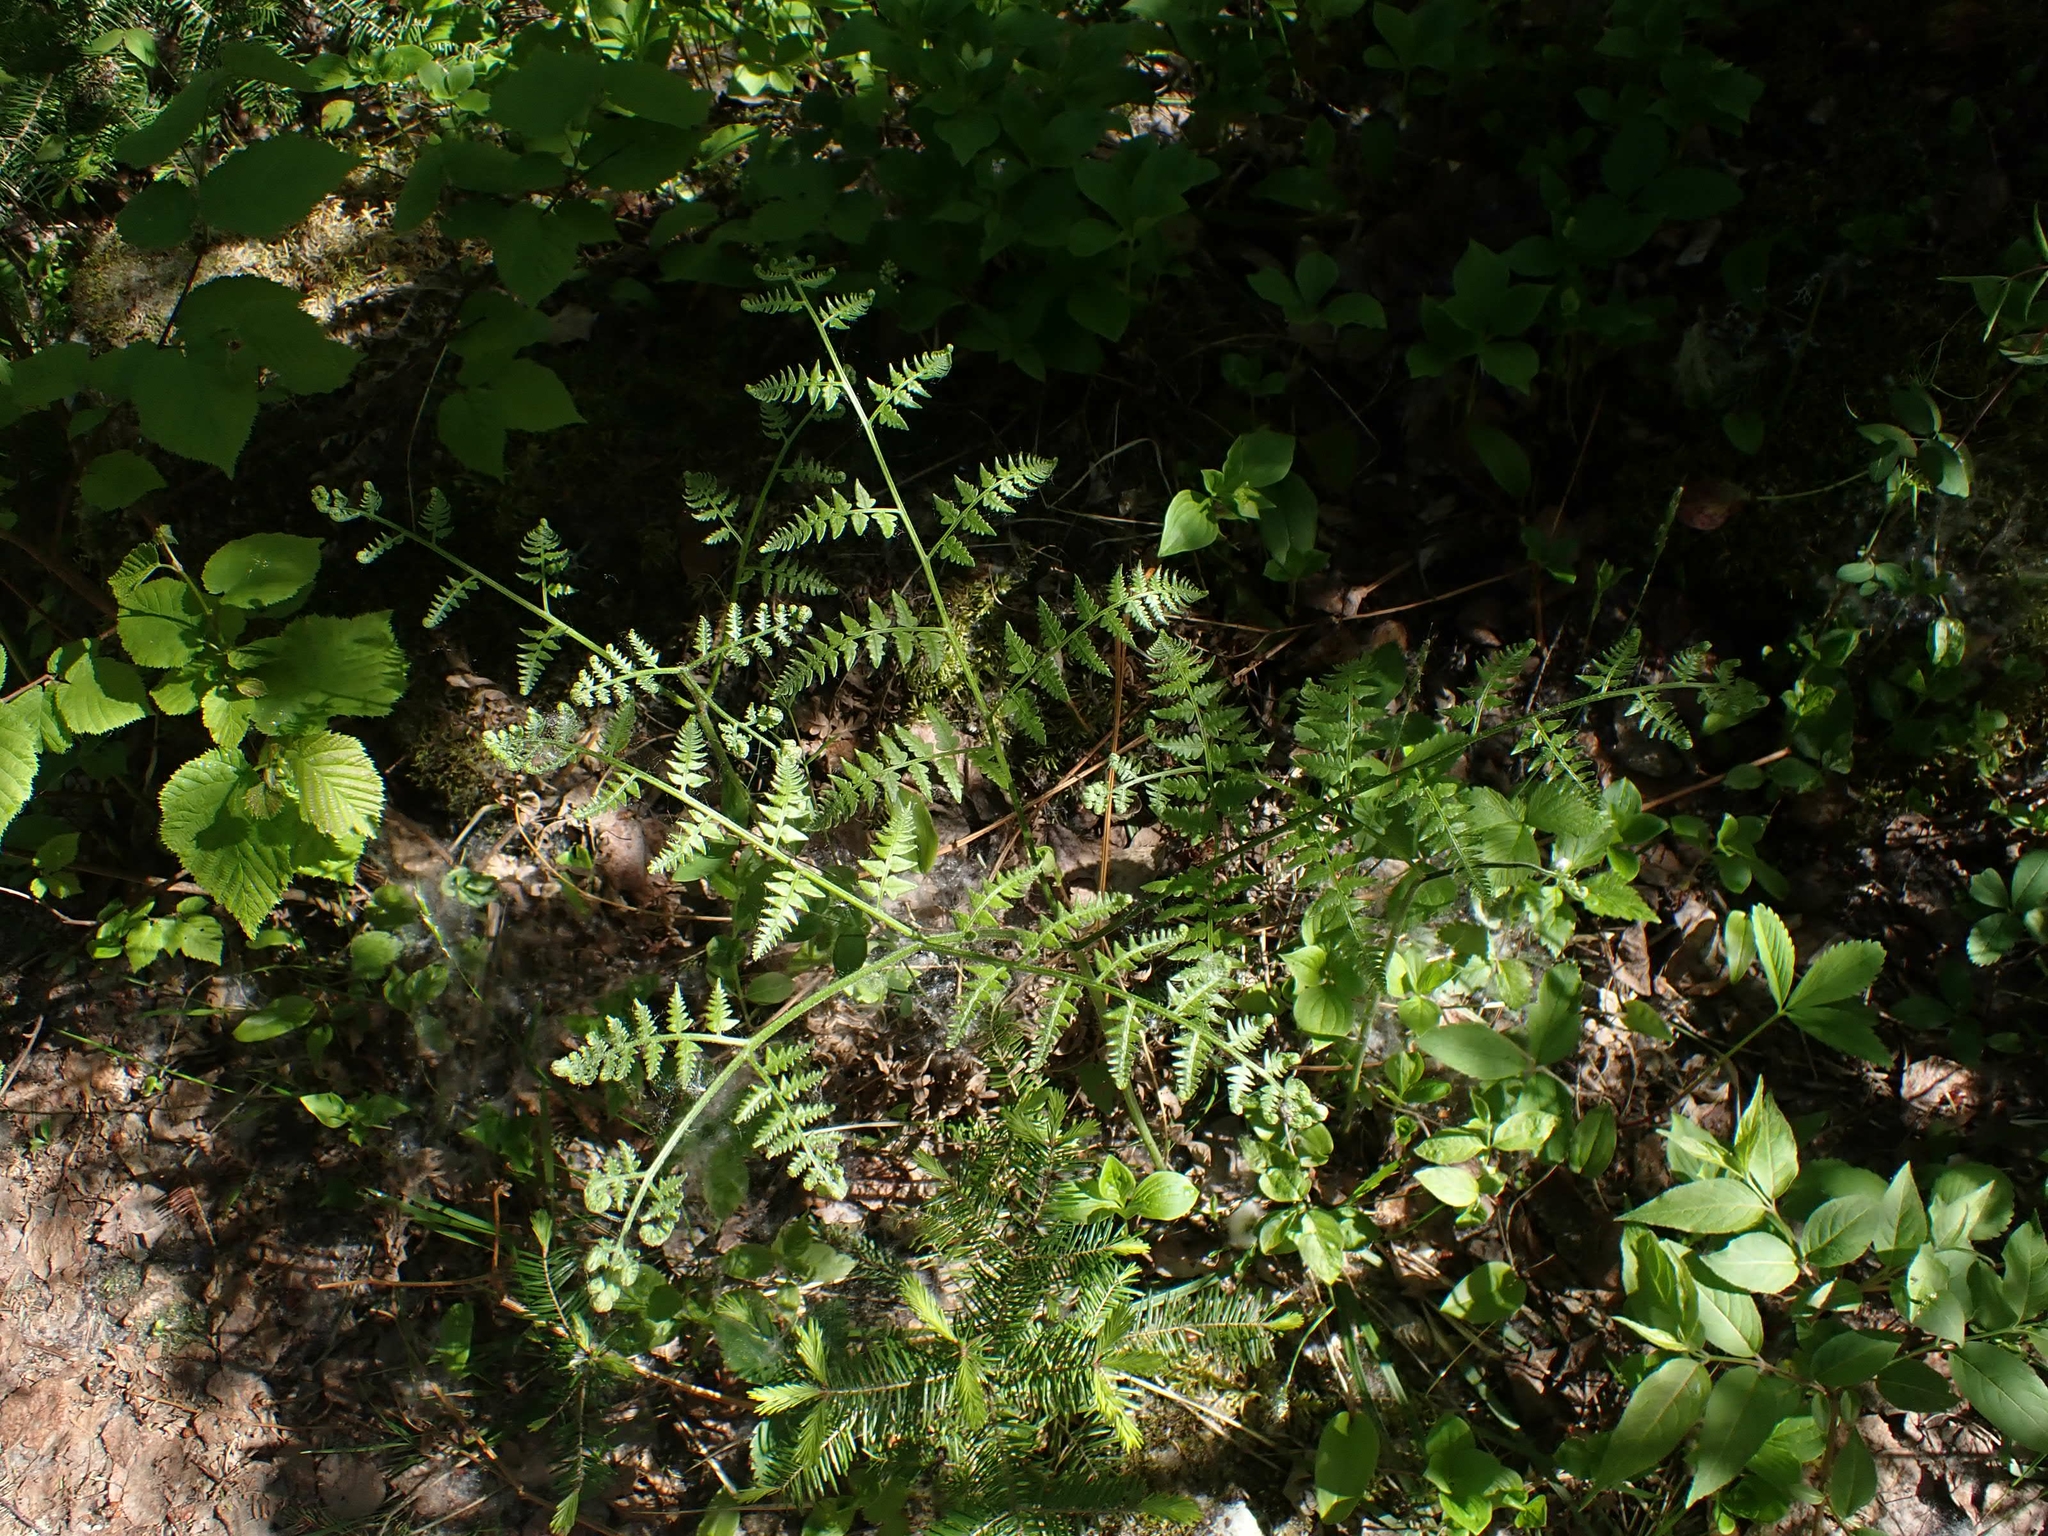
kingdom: Plantae
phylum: Tracheophyta
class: Polypodiopsida
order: Polypodiales
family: Dennstaedtiaceae
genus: Pteridium
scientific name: Pteridium aquilinum
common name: Bracken
